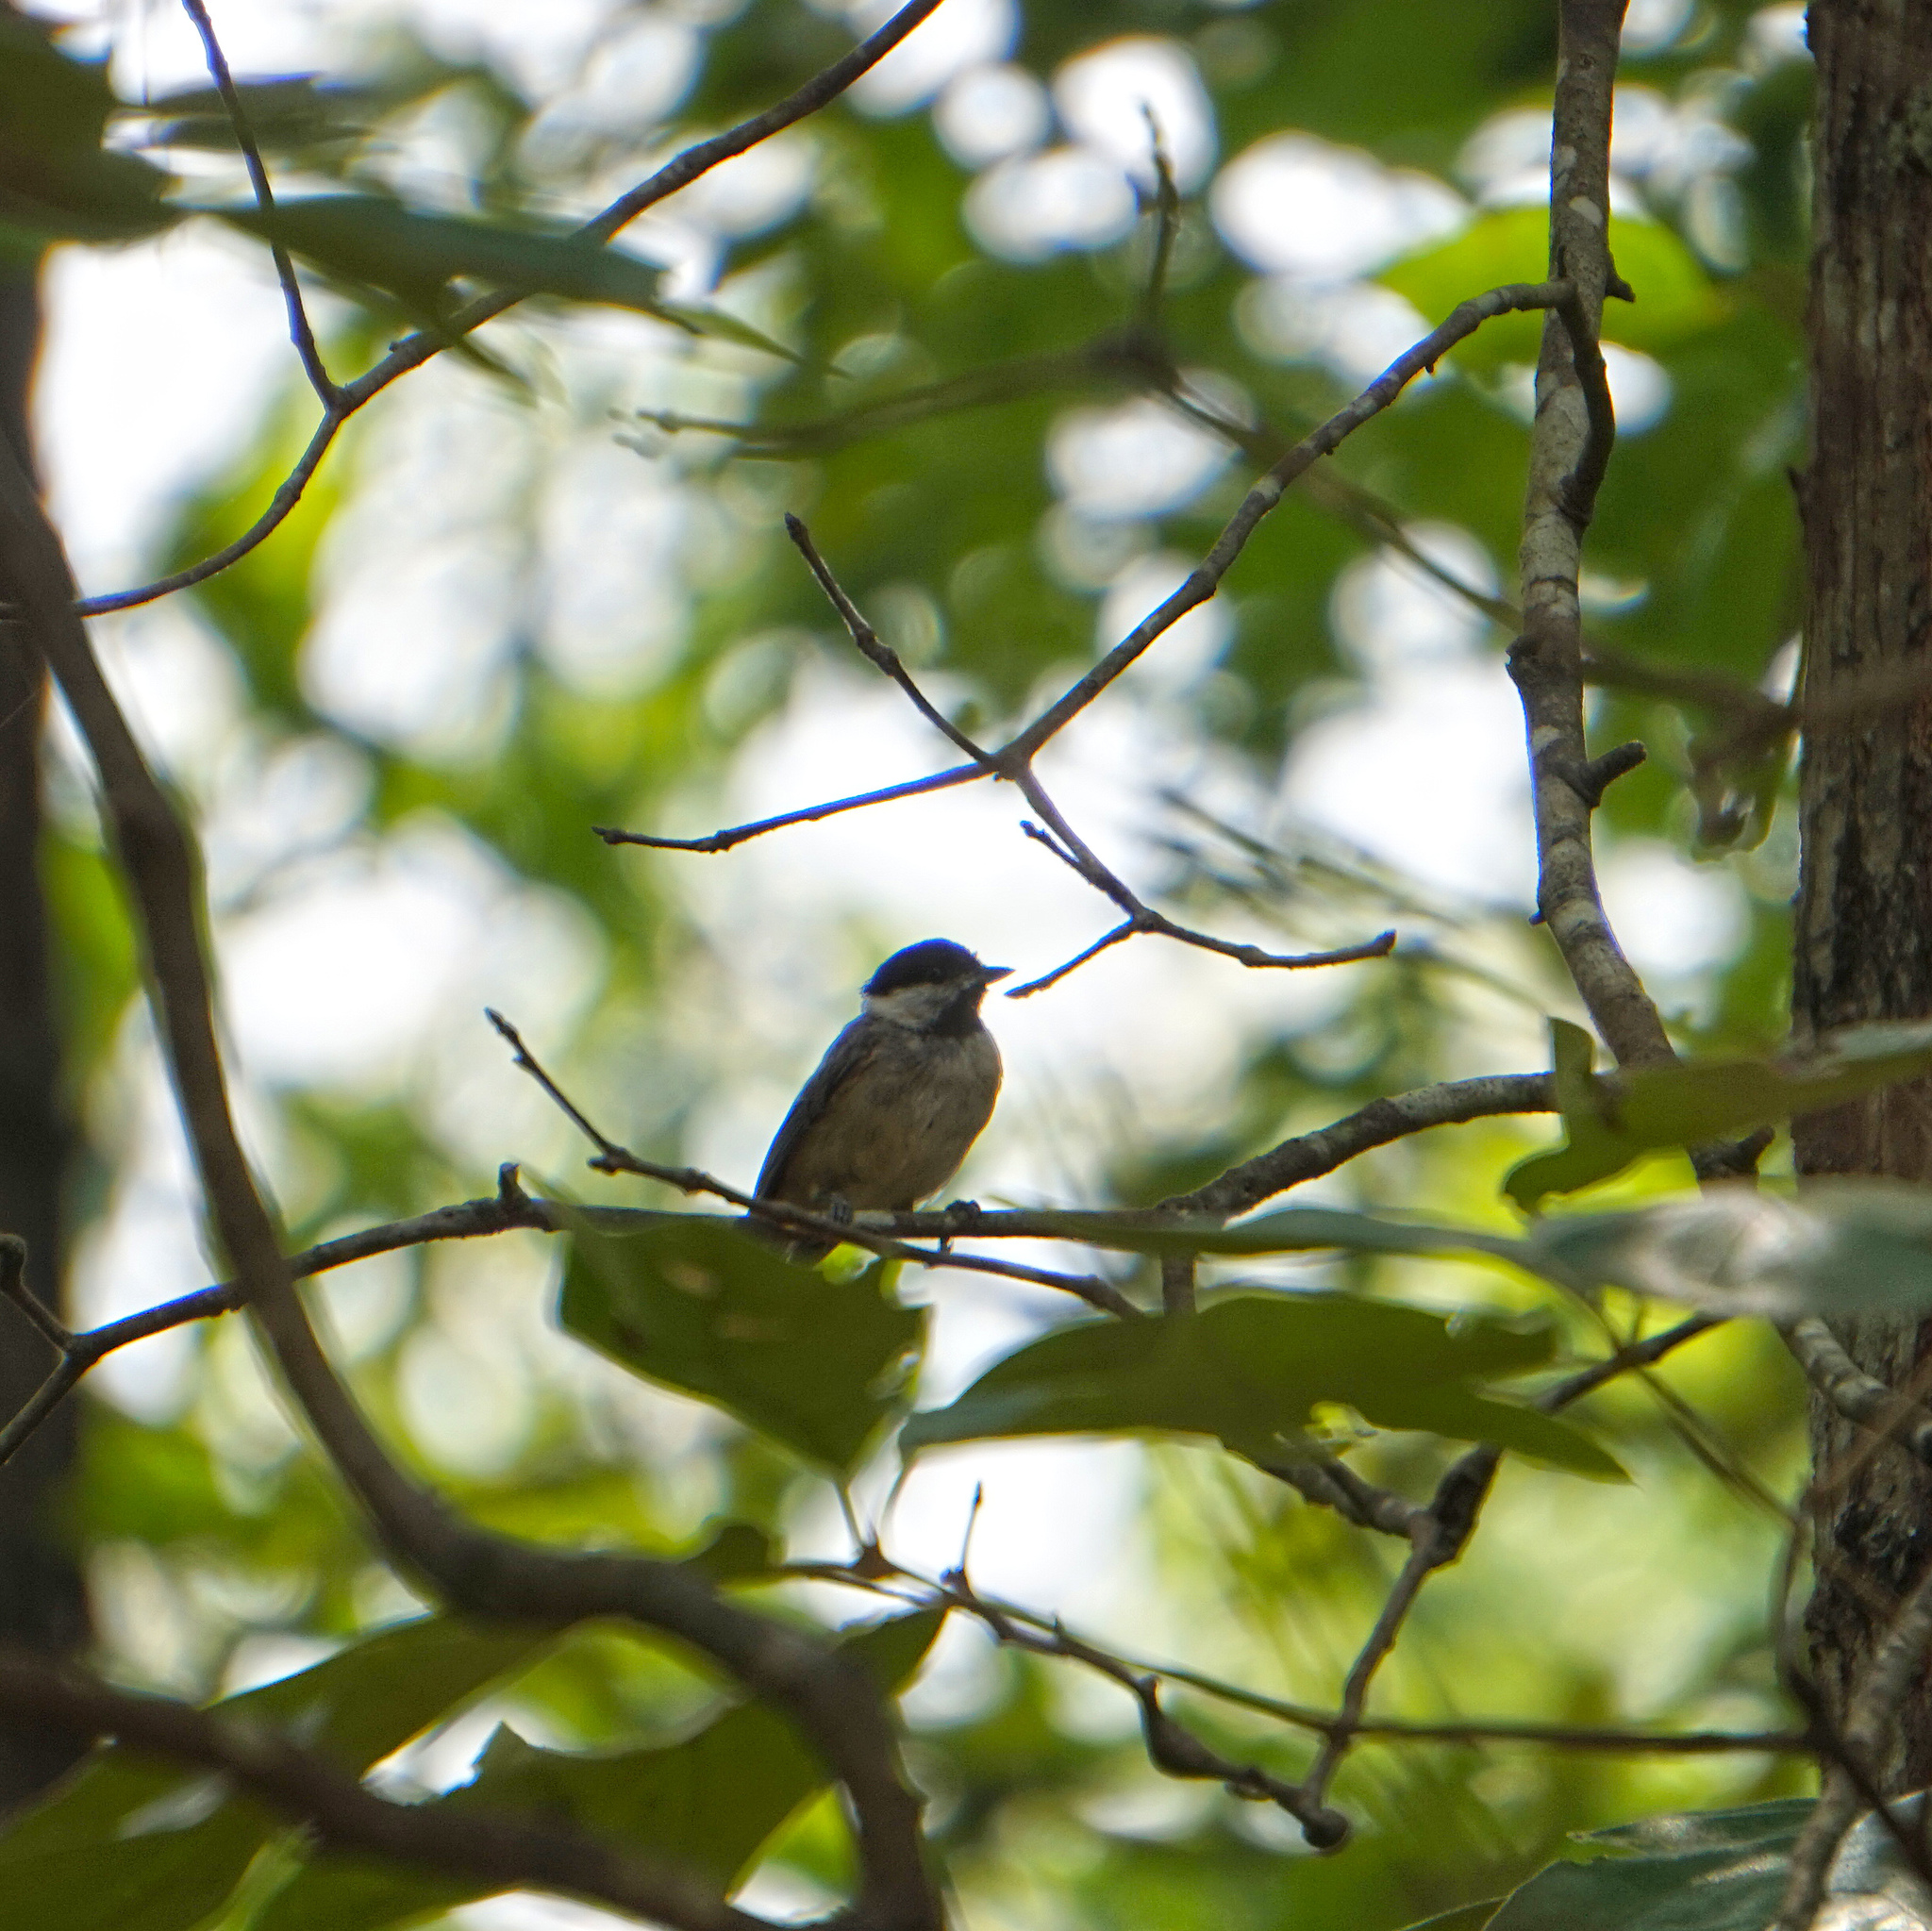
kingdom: Animalia
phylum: Chordata
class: Aves
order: Passeriformes
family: Paridae
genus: Poecile
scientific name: Poecile carolinensis
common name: Carolina chickadee
